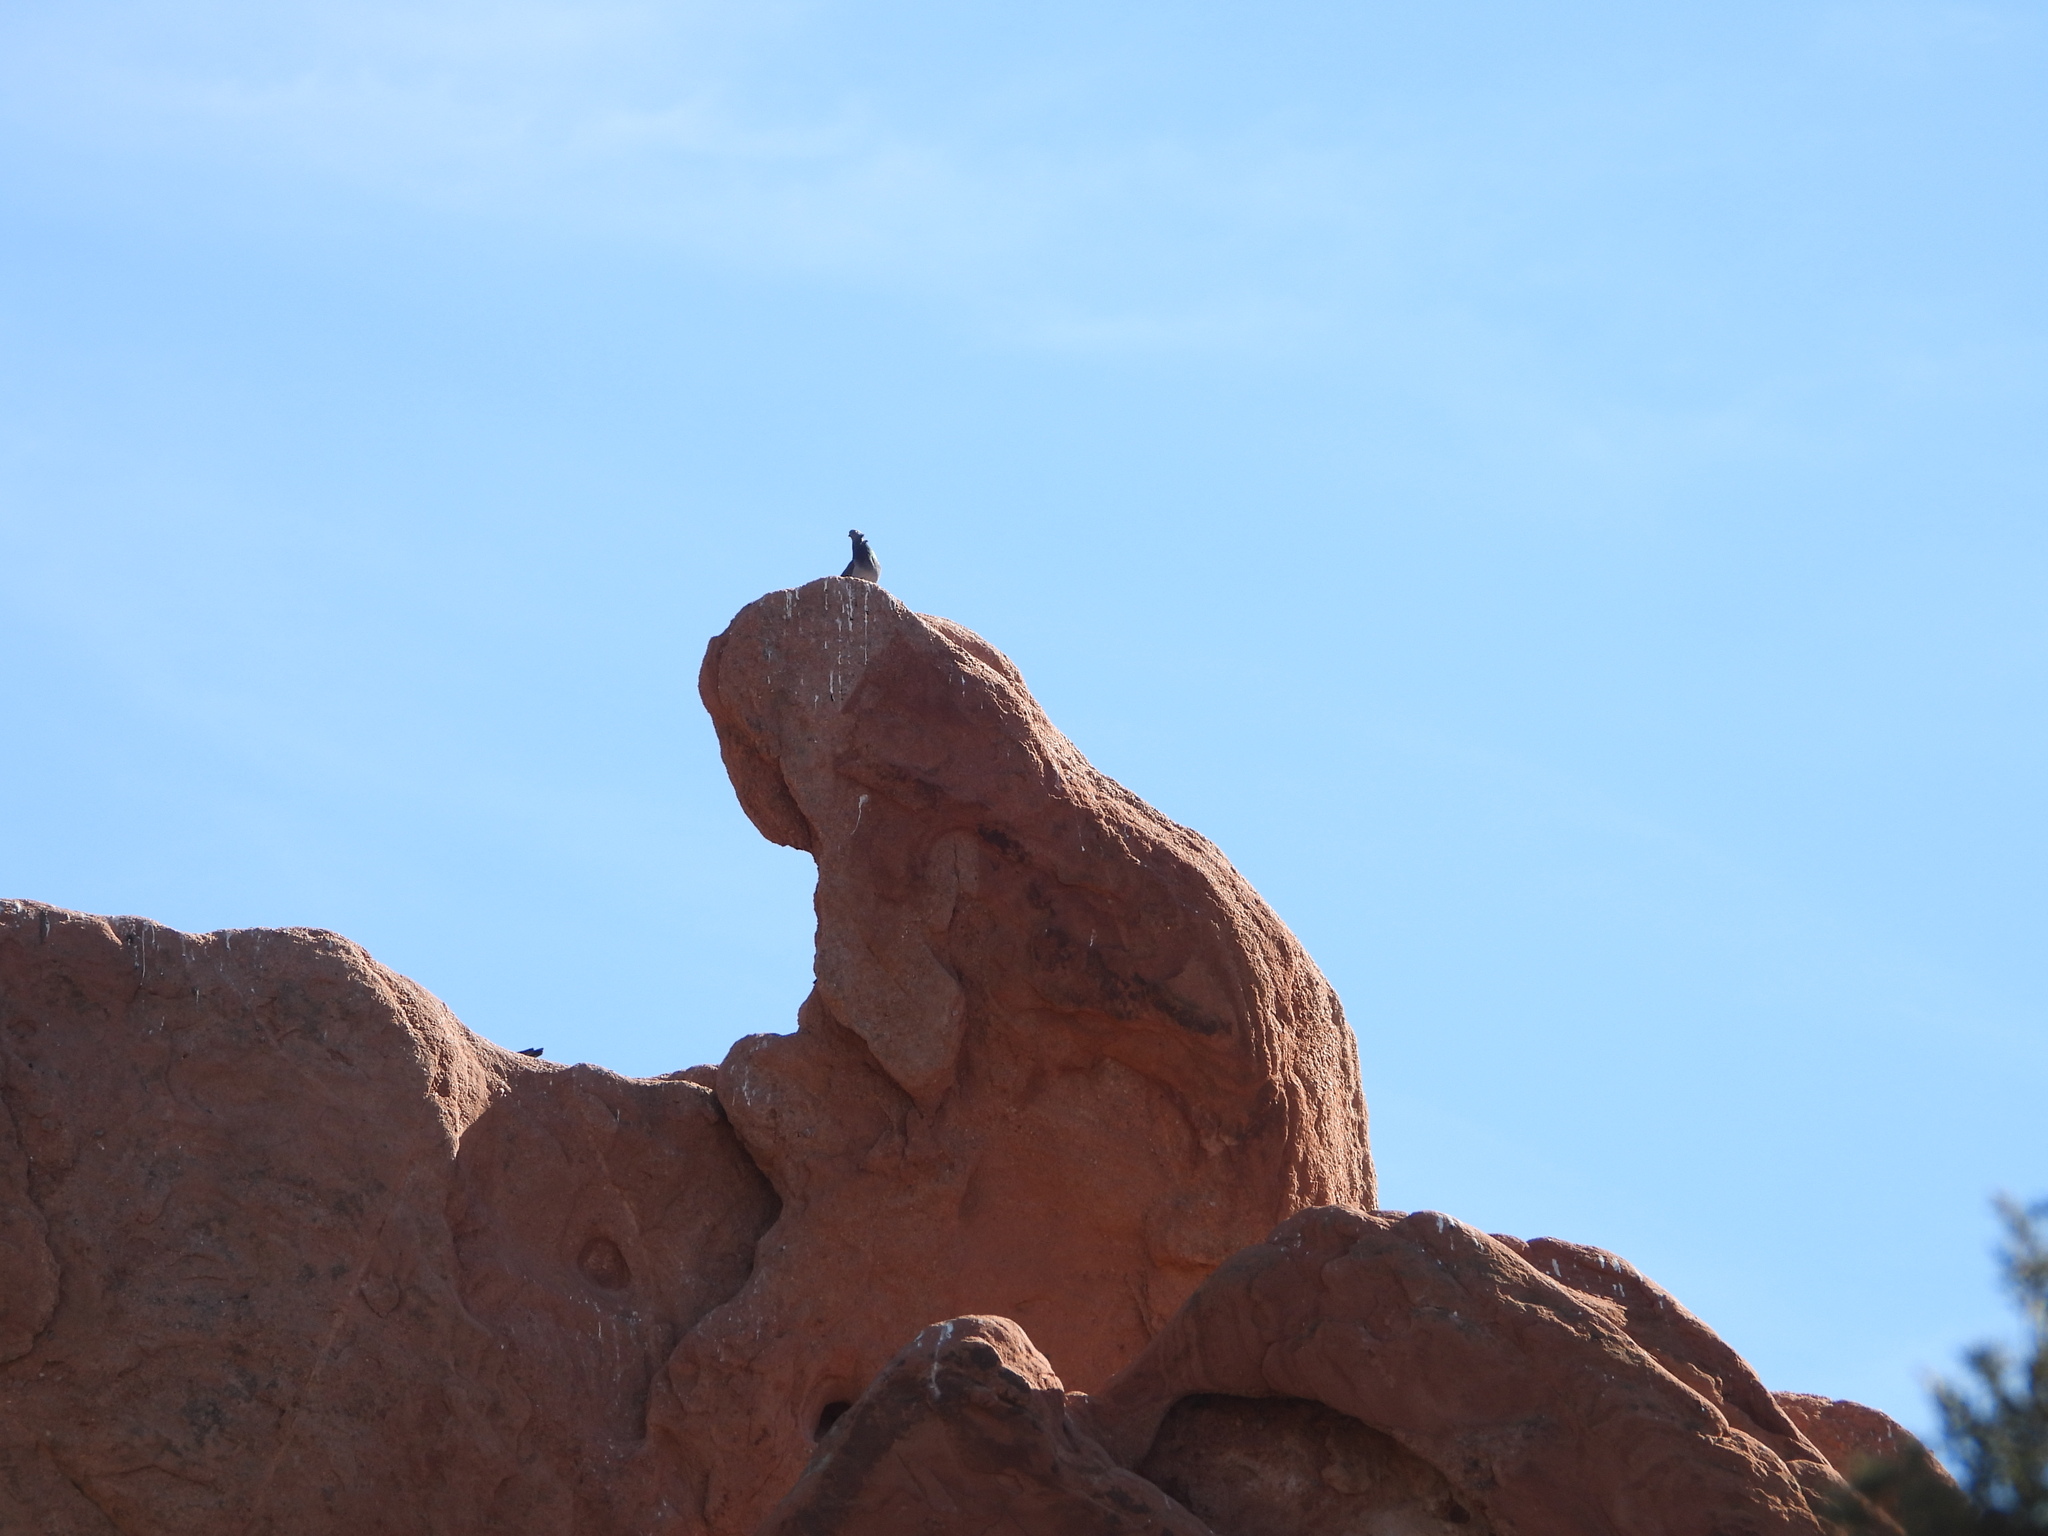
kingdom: Animalia
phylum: Chordata
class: Aves
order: Columbiformes
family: Columbidae
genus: Columba
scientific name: Columba livia
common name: Rock pigeon
